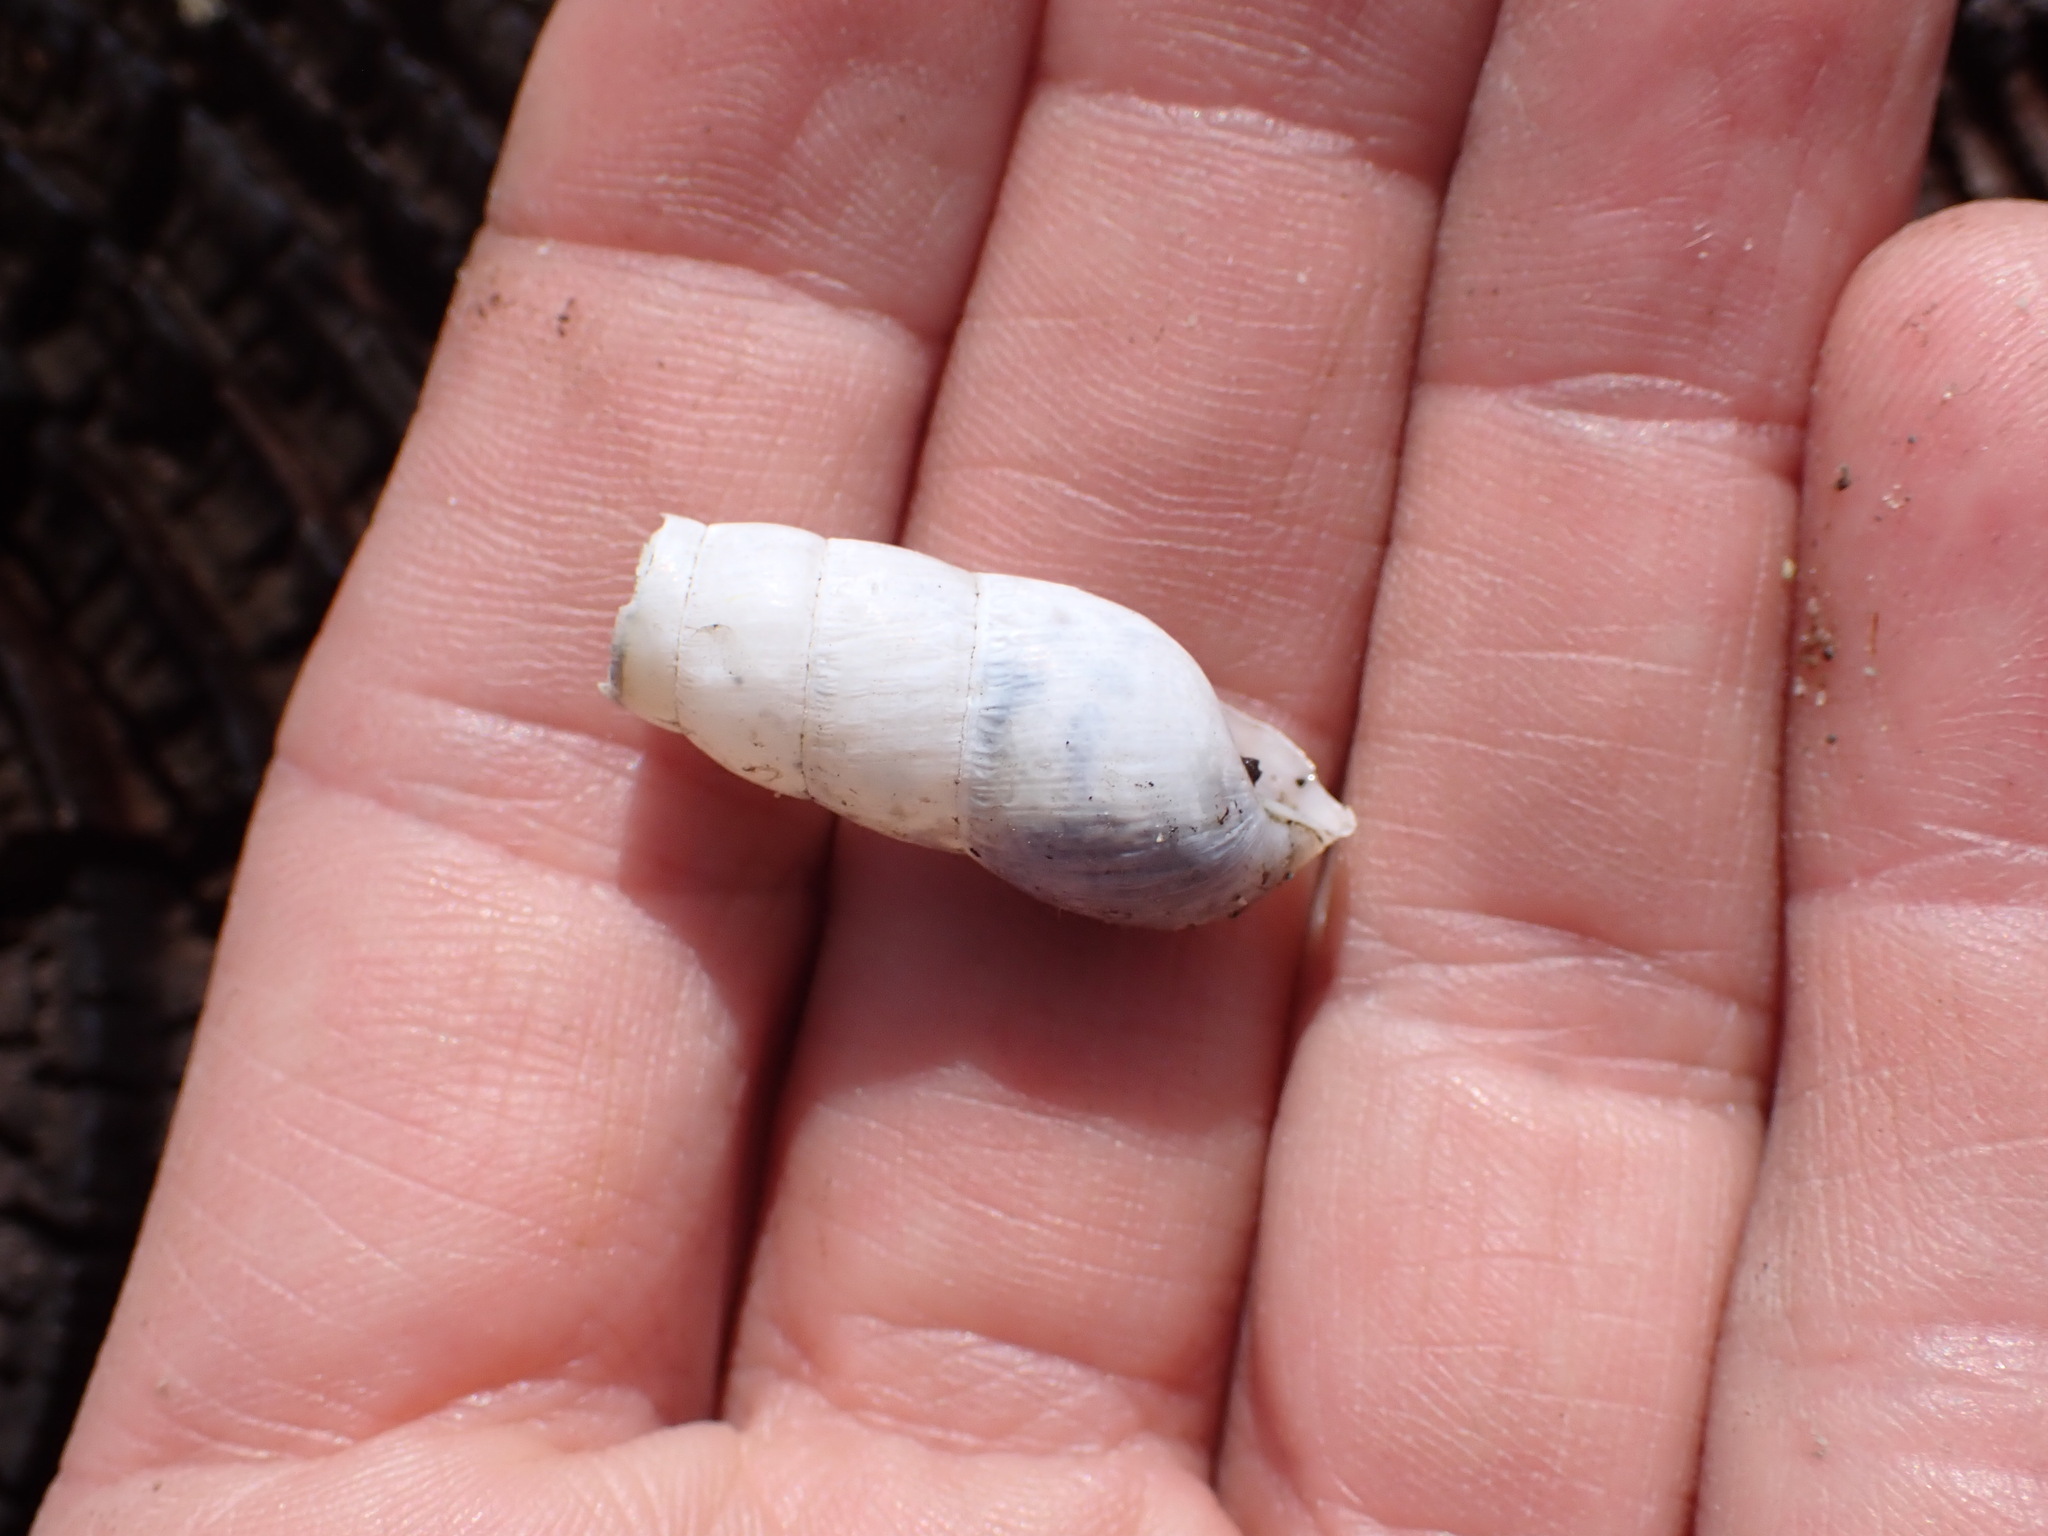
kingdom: Animalia
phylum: Mollusca
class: Gastropoda
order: Stylommatophora
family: Achatinidae
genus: Rumina
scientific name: Rumina decollata
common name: Decollate snail
